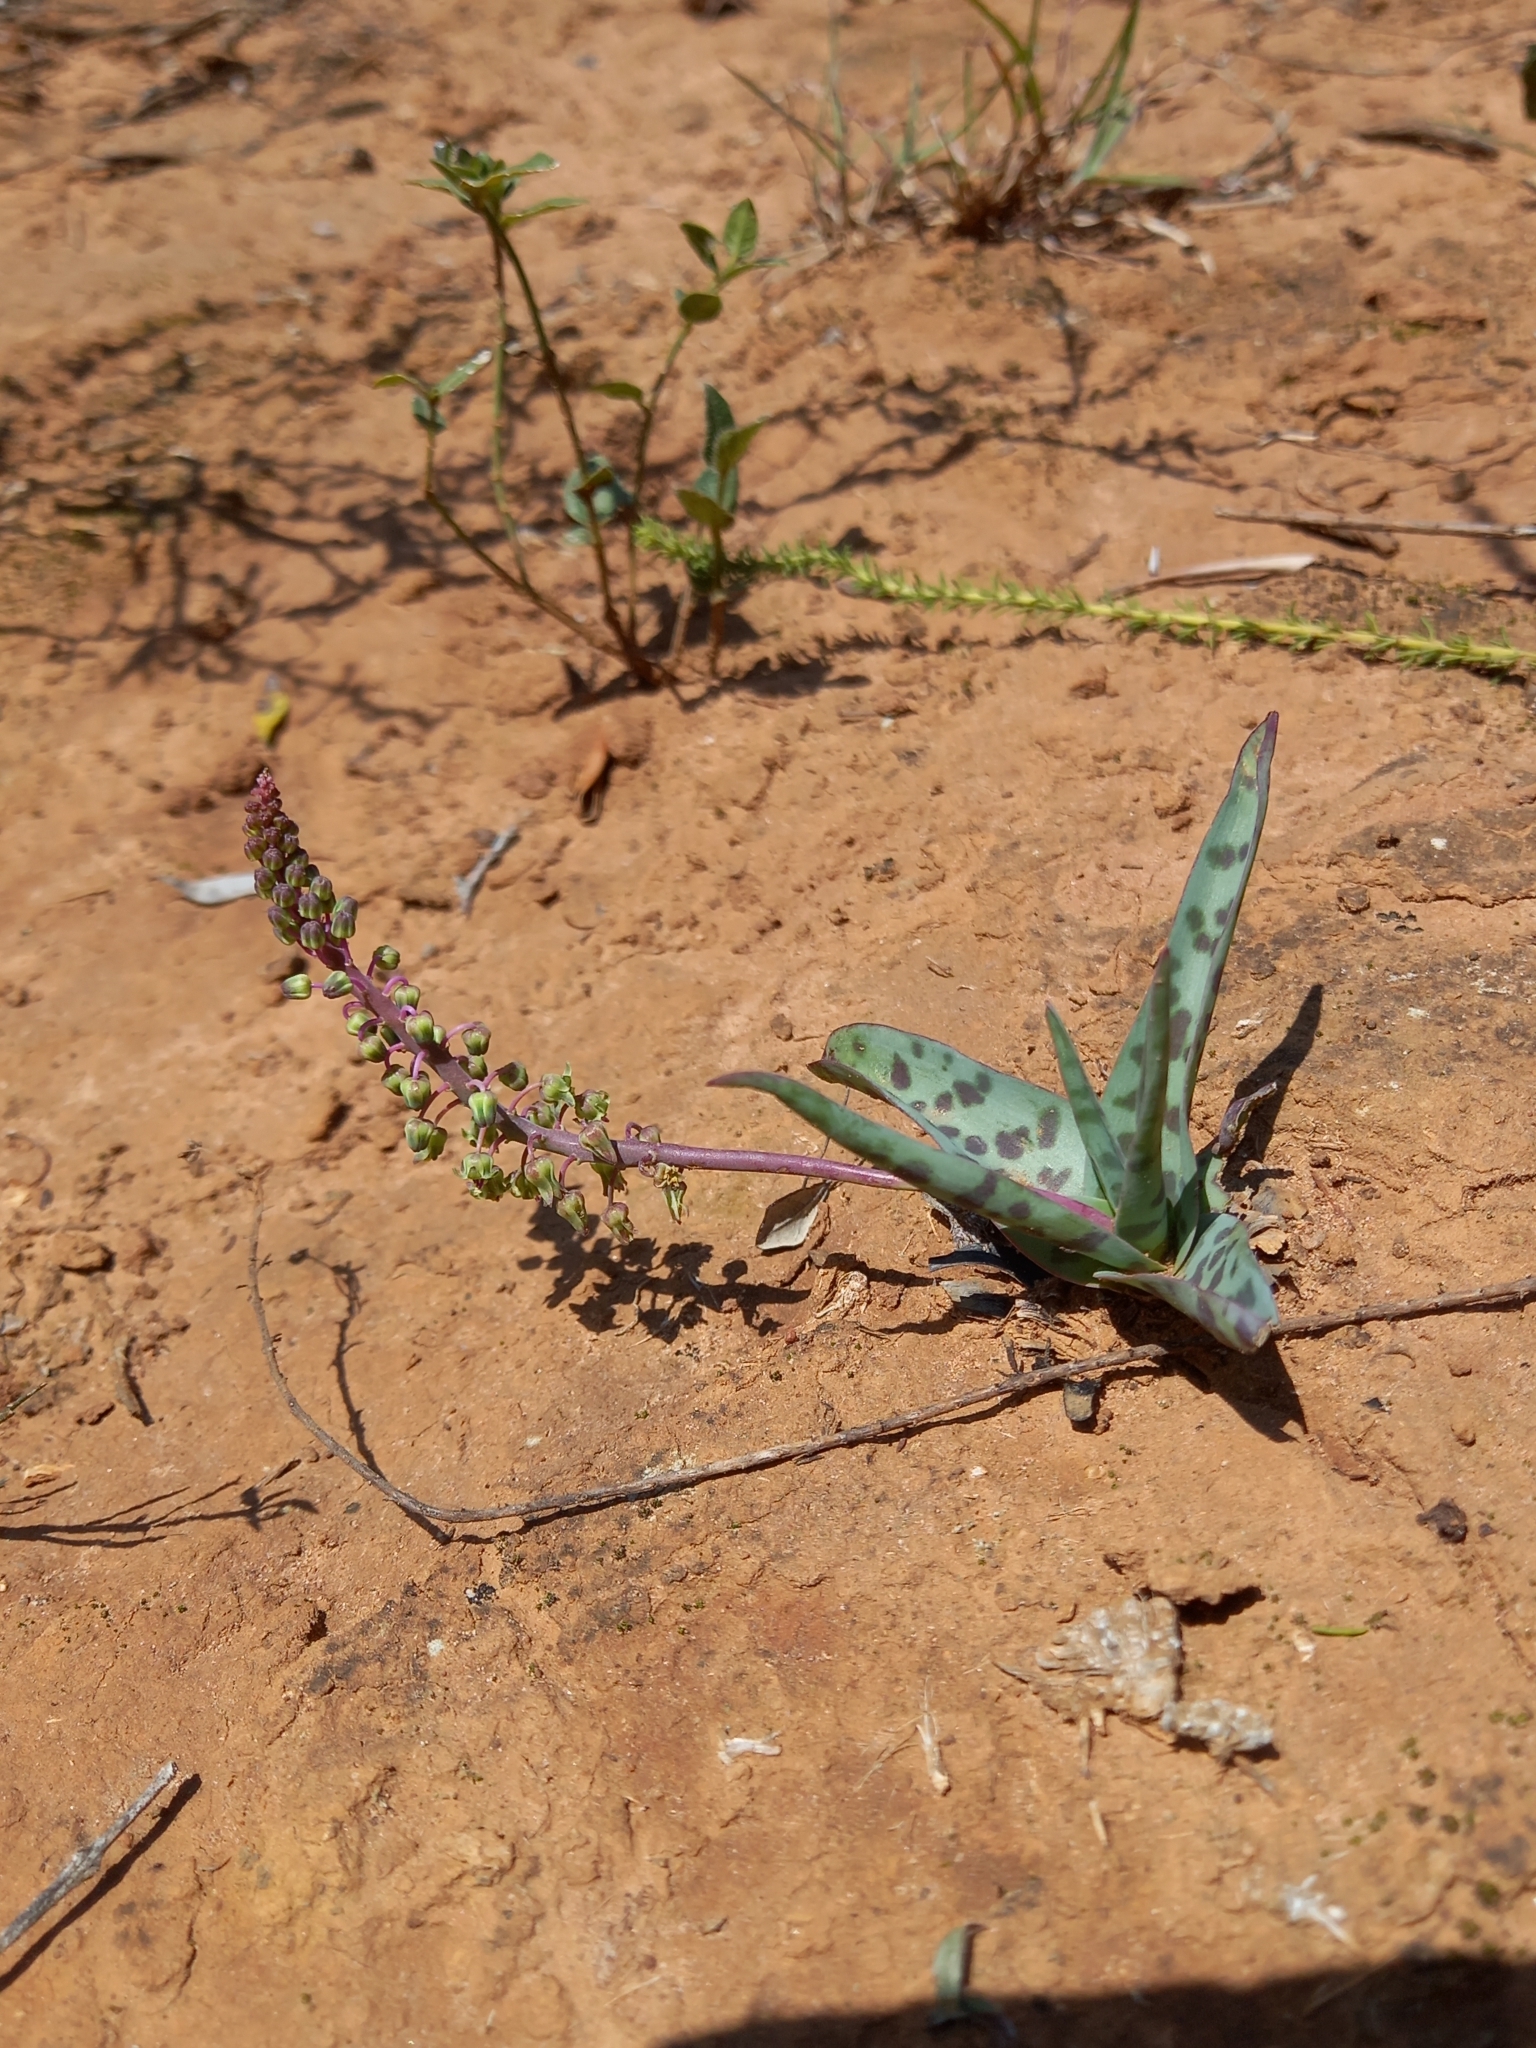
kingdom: Plantae
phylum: Tracheophyta
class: Liliopsida
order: Asparagales
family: Asparagaceae
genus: Ledebouria
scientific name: Ledebouria ensifolia
